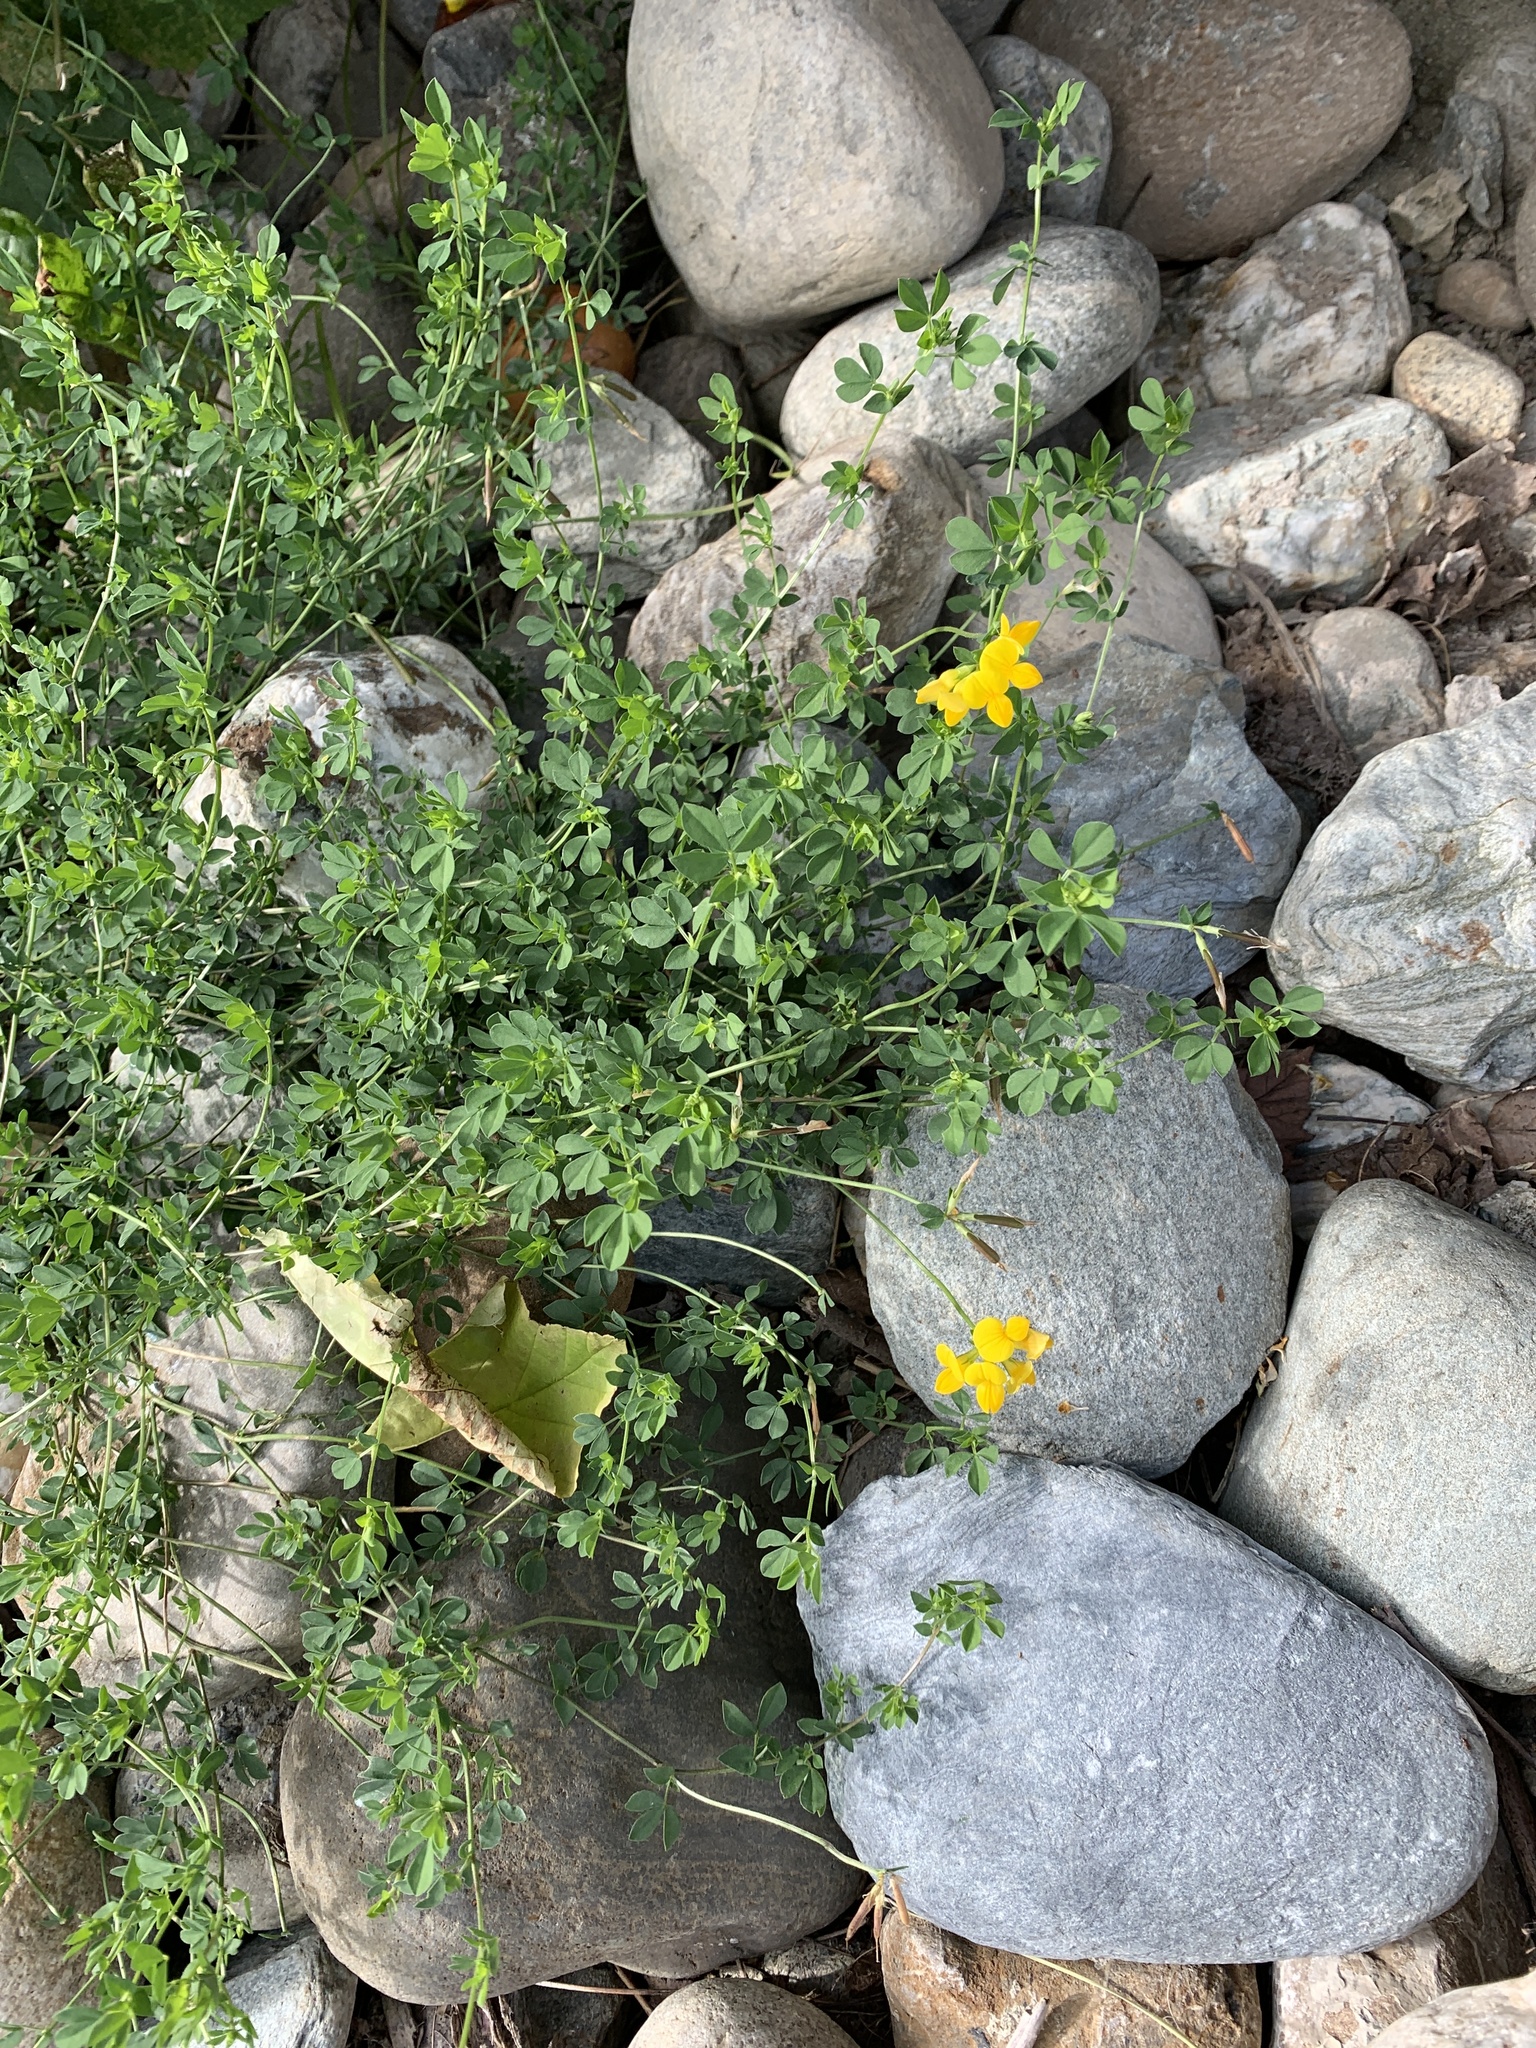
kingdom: Plantae
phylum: Tracheophyta
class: Magnoliopsida
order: Fabales
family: Fabaceae
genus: Lotus
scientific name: Lotus corniculatus
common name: Common bird's-foot-trefoil
